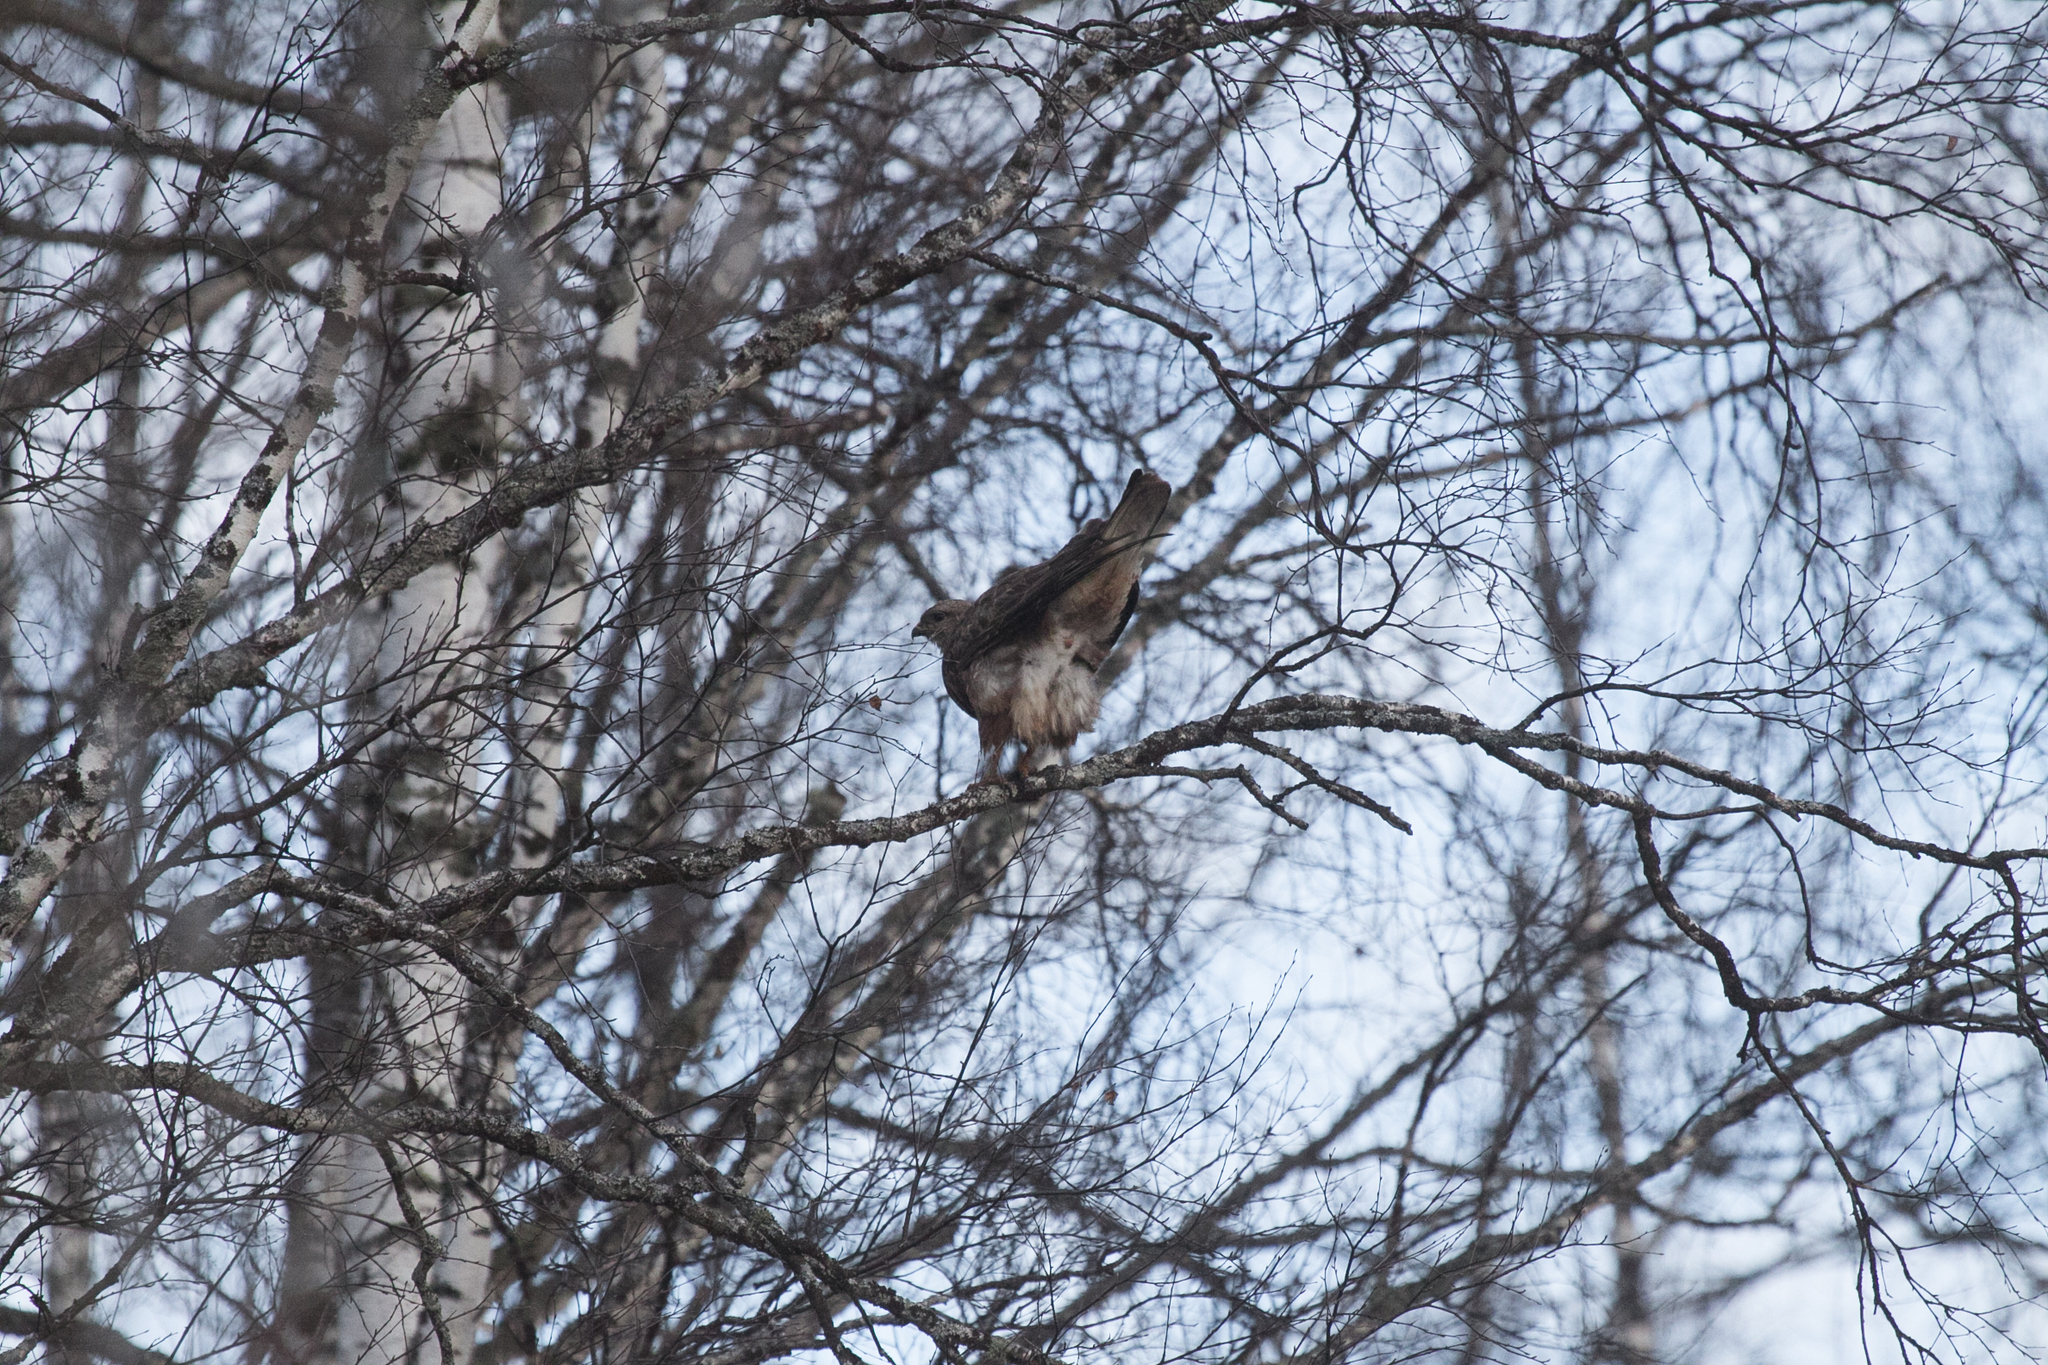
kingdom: Animalia
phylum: Chordata
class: Aves
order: Accipitriformes
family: Accipitridae
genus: Buteo
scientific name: Buteo buteo
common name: Common buzzard
